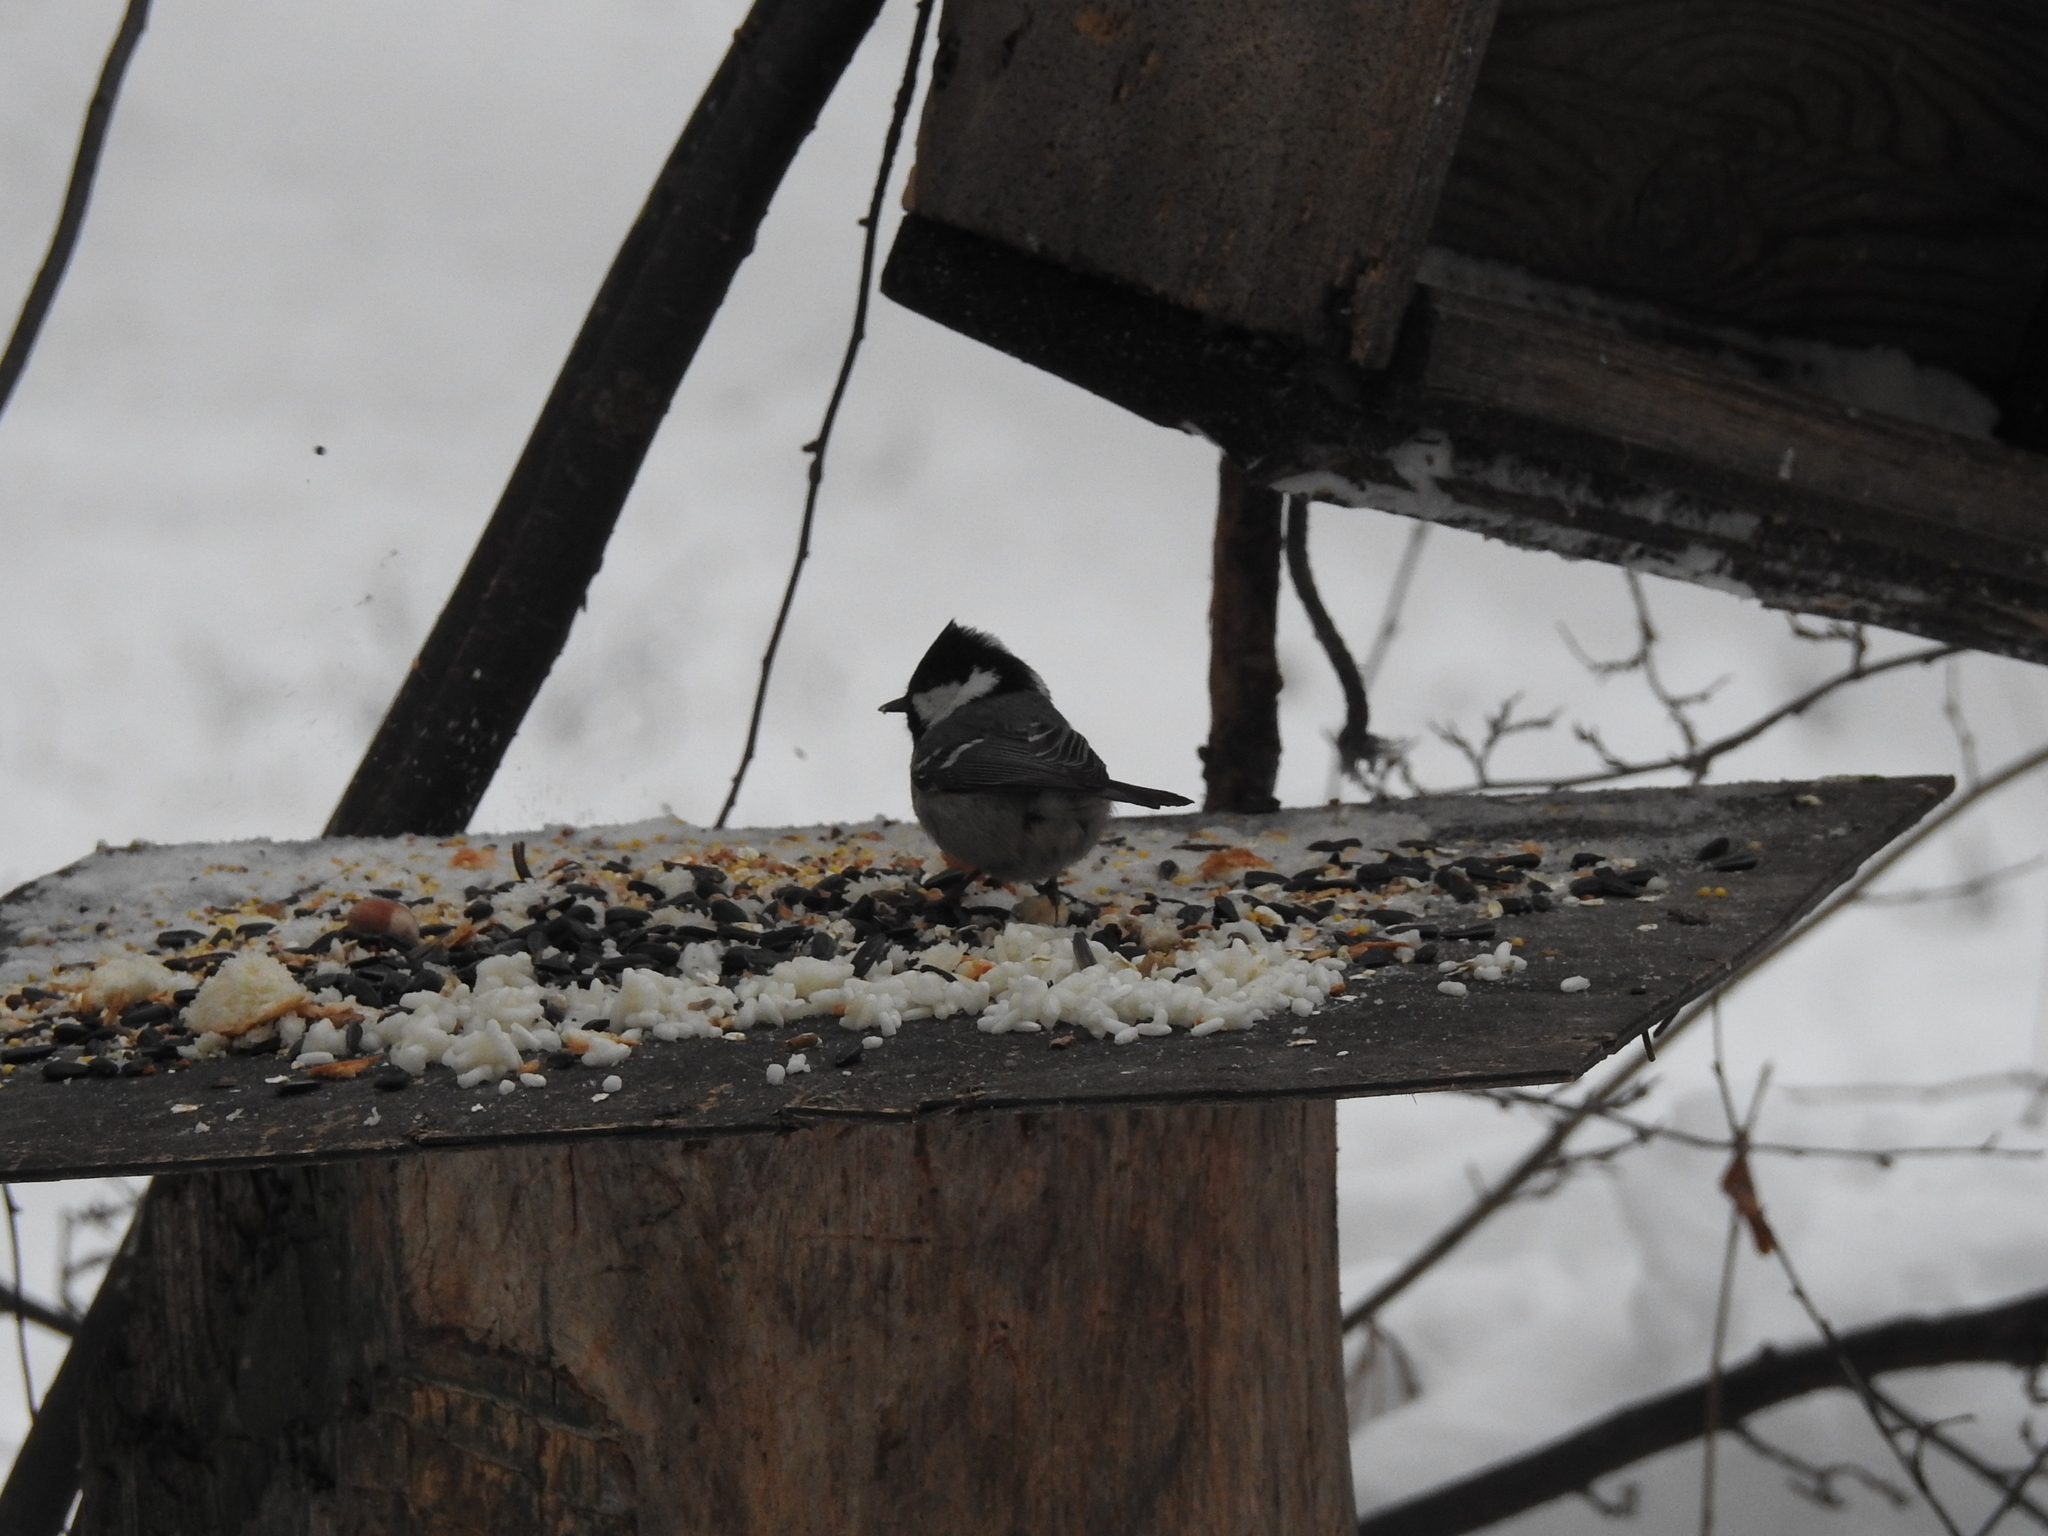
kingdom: Animalia
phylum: Chordata
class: Aves
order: Passeriformes
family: Paridae
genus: Periparus
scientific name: Periparus ater
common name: Coal tit
